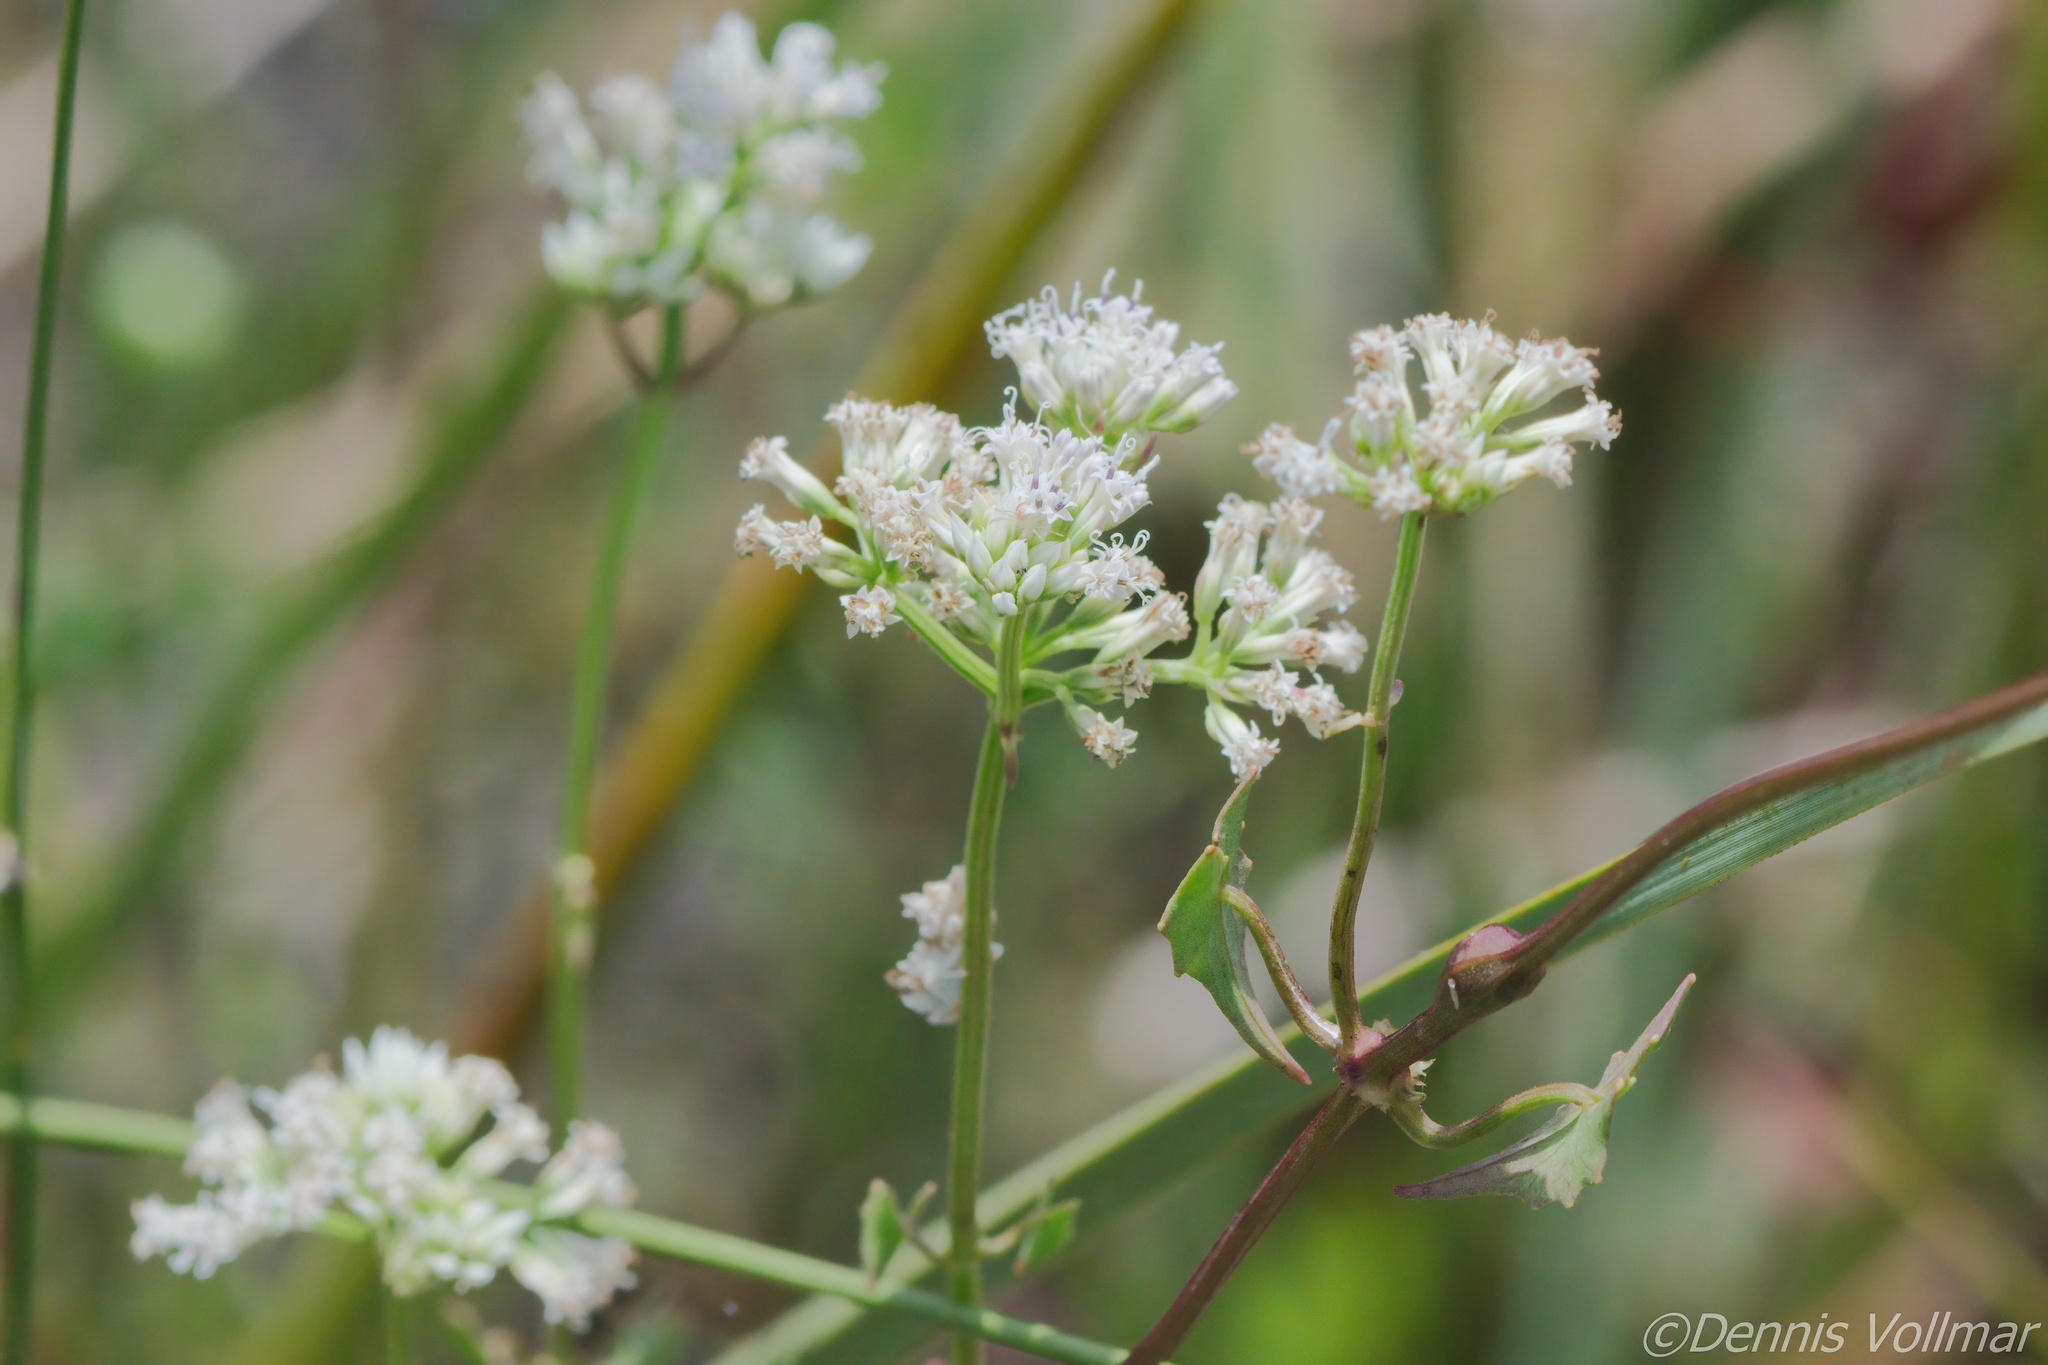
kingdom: Plantae
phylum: Tracheophyta
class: Magnoliopsida
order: Asterales
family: Asteraceae
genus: Mikania
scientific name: Mikania scandens
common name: Climbing hempvine
